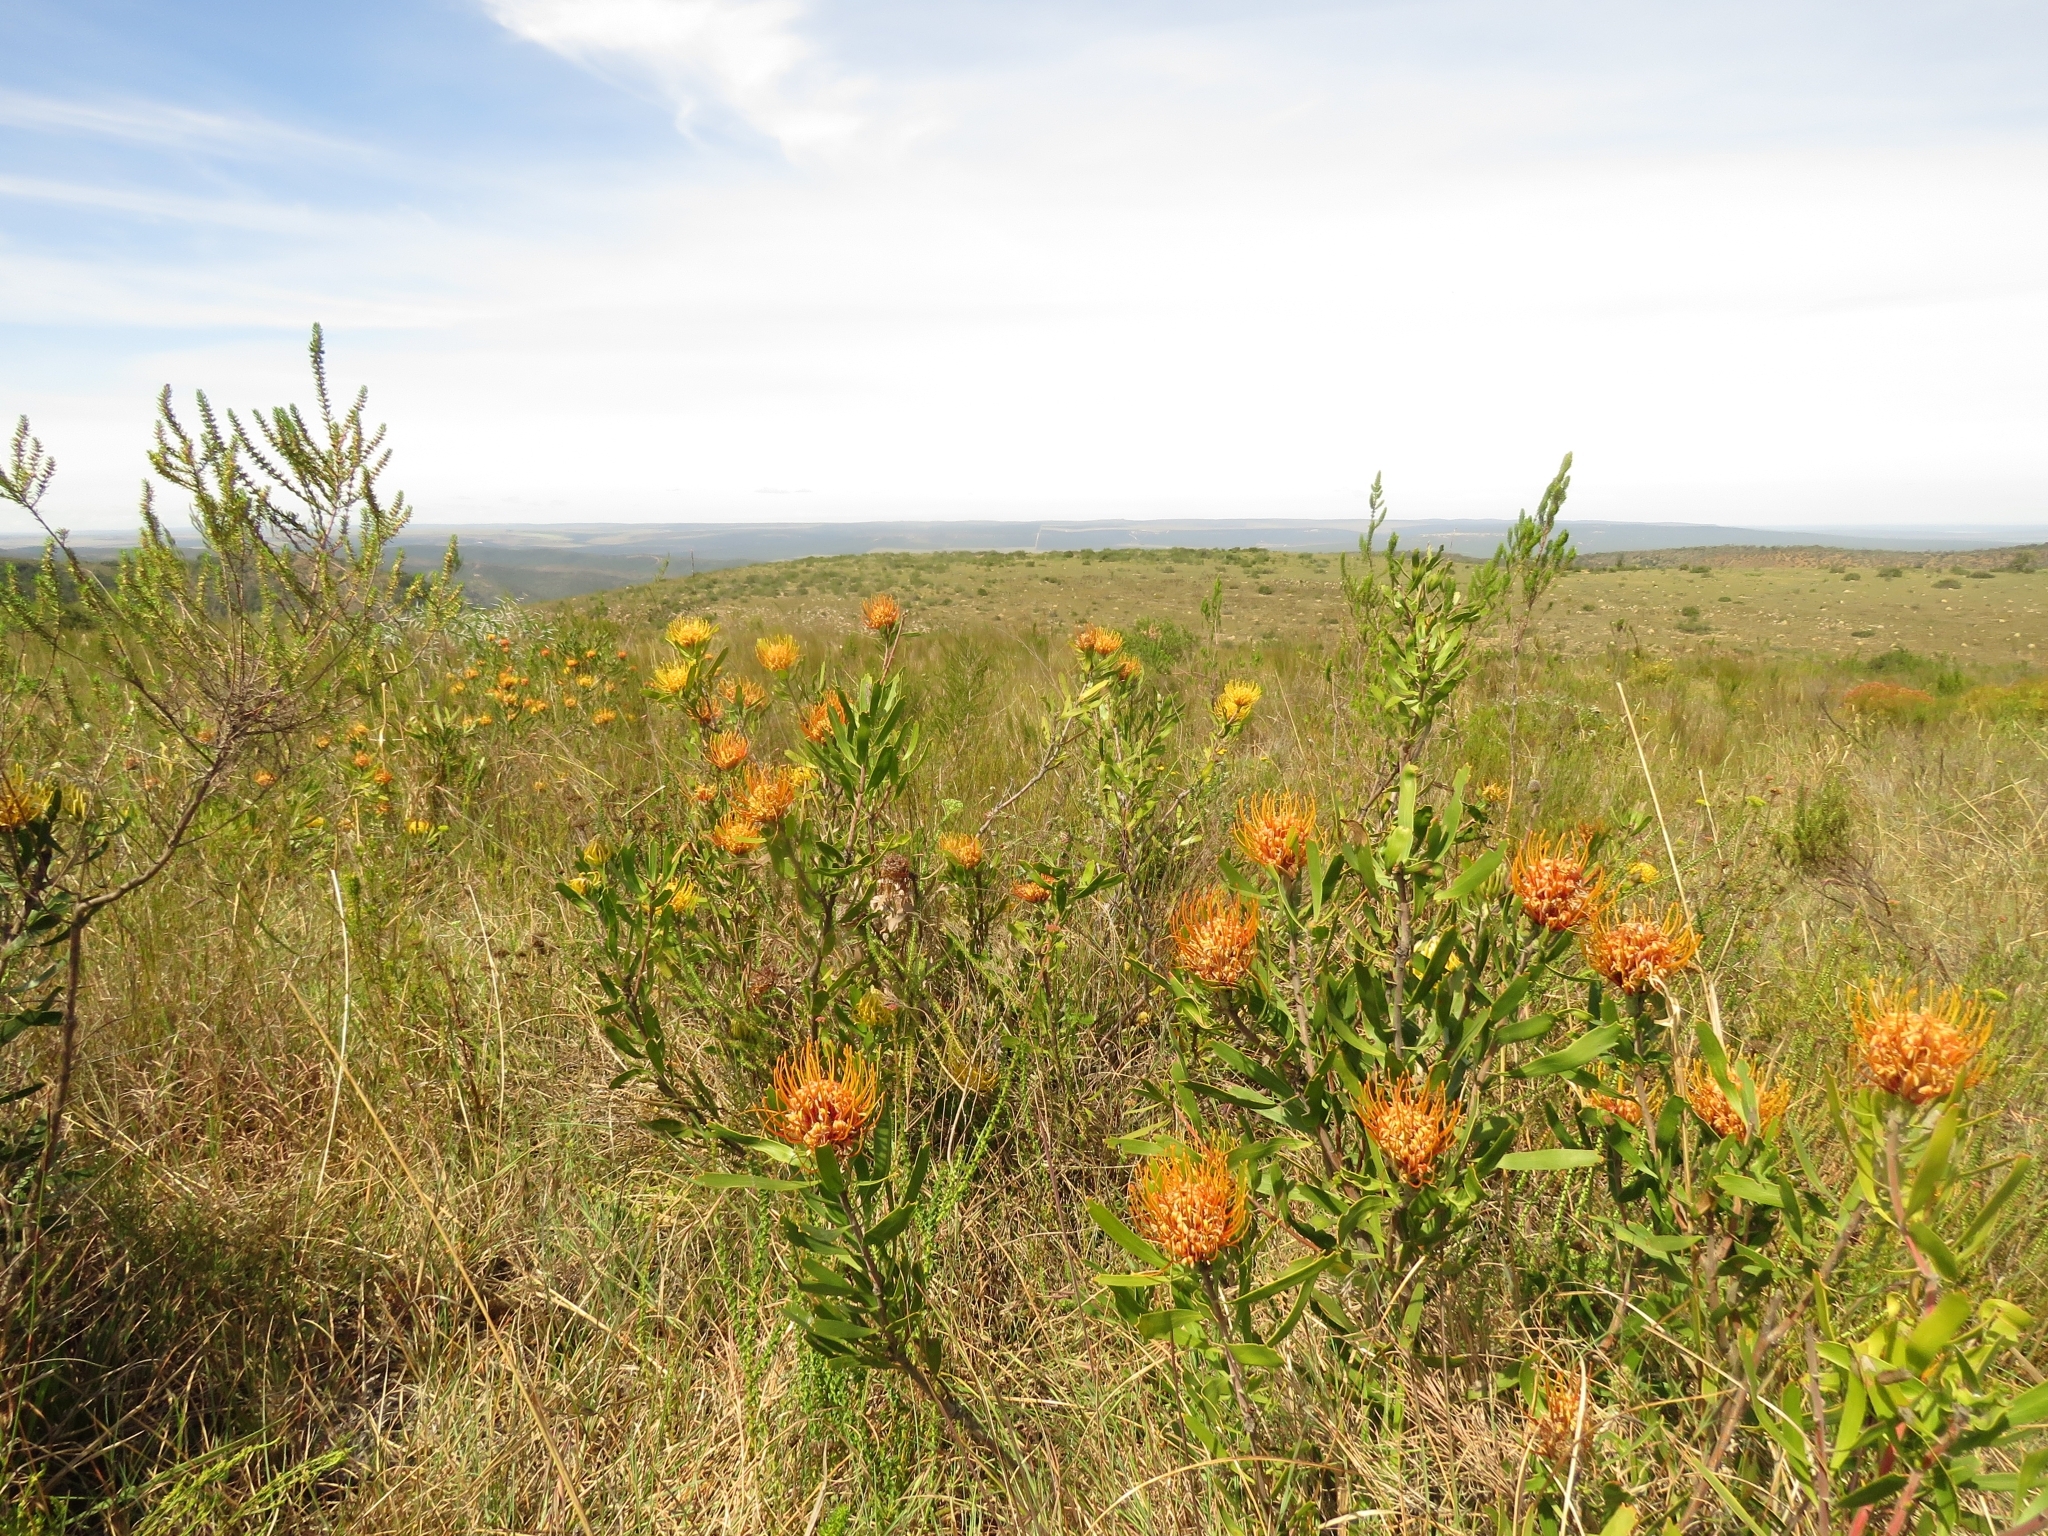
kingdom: Plantae
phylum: Tracheophyta
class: Magnoliopsida
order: Proteales
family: Proteaceae
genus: Leucospermum
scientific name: Leucospermum cuneiforme
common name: Common pincushion
